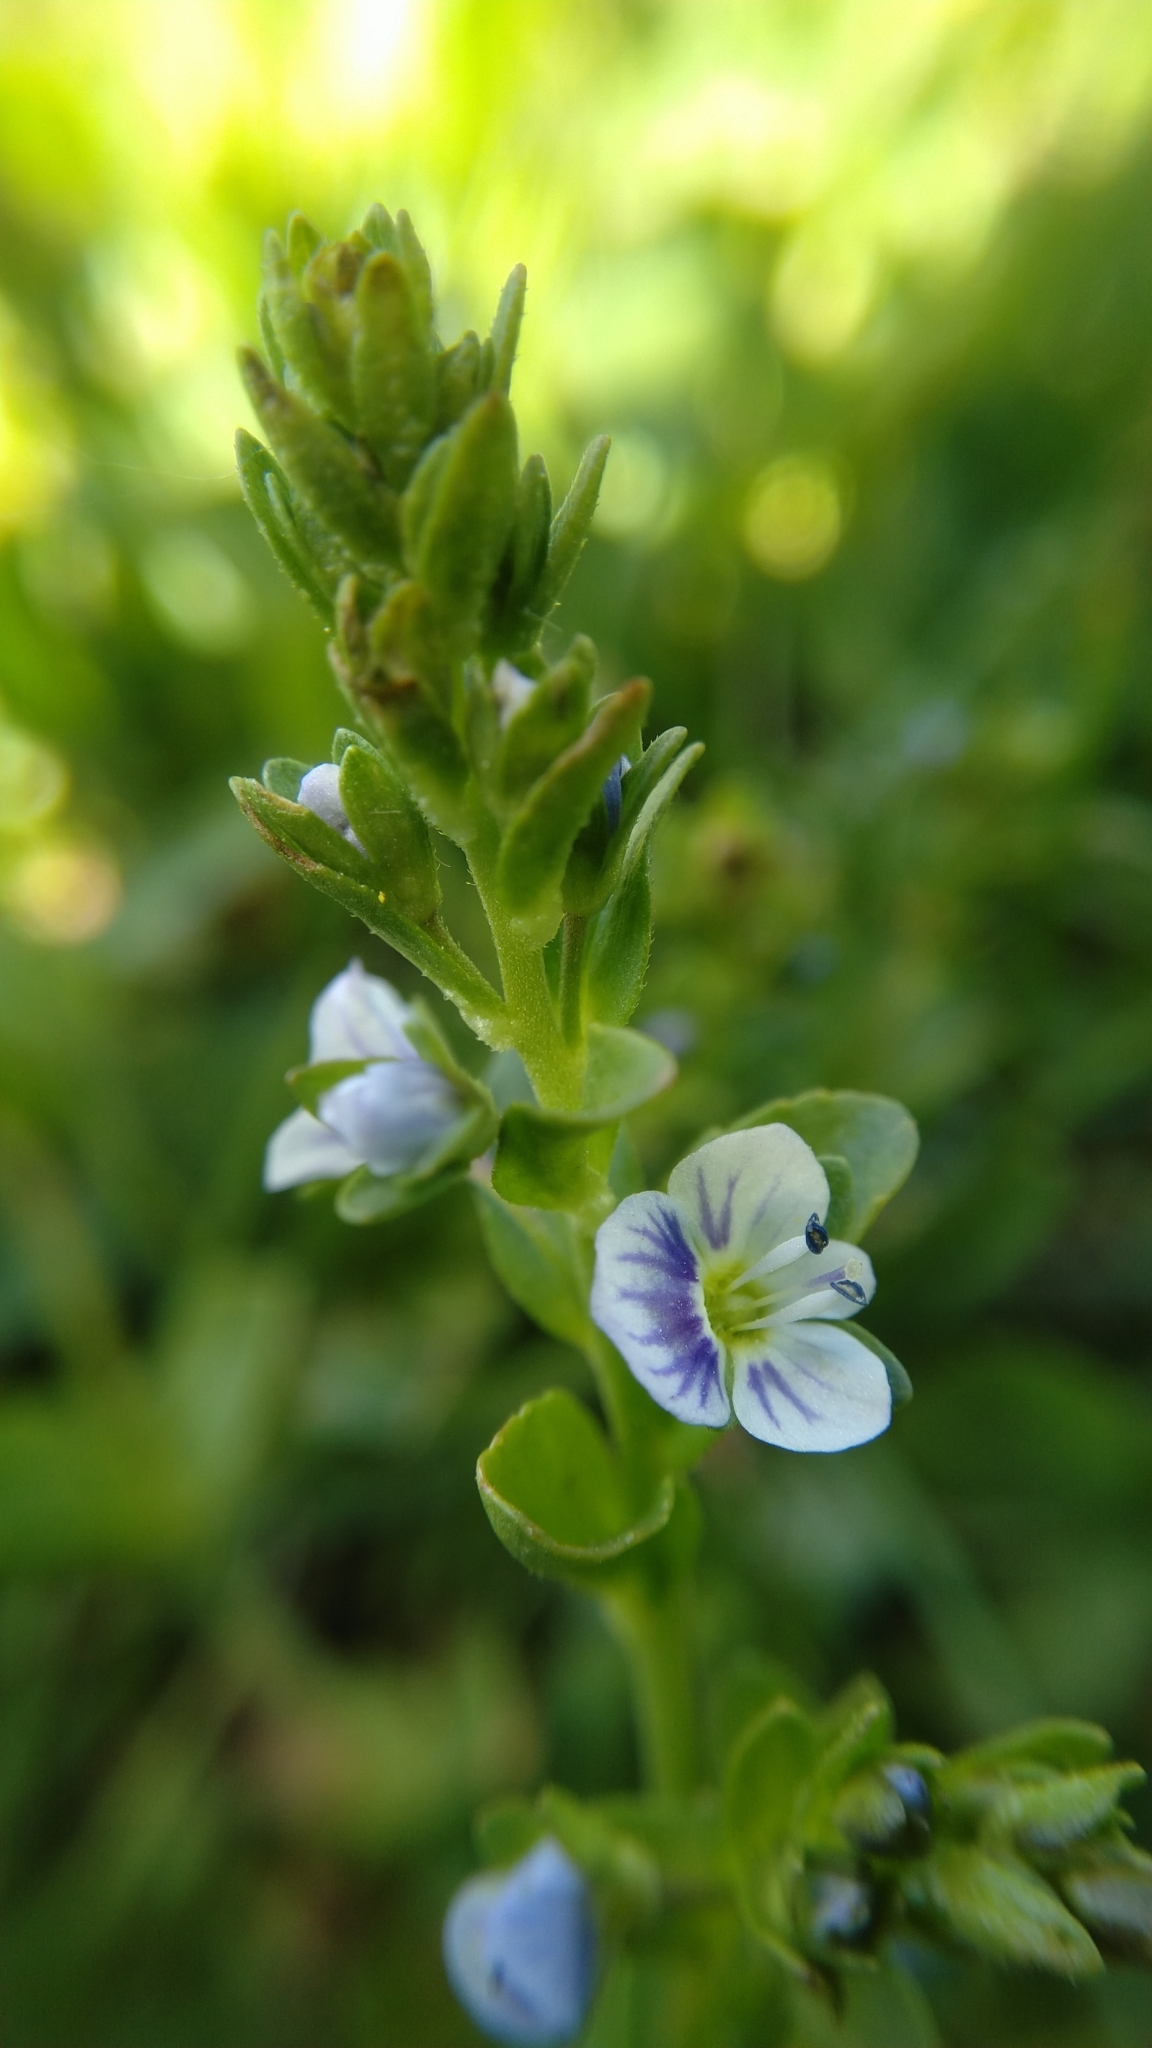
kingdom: Plantae
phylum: Tracheophyta
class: Magnoliopsida
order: Lamiales
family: Plantaginaceae
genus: Veronica
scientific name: Veronica serpyllifolia
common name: Thyme-leaved speedwell
